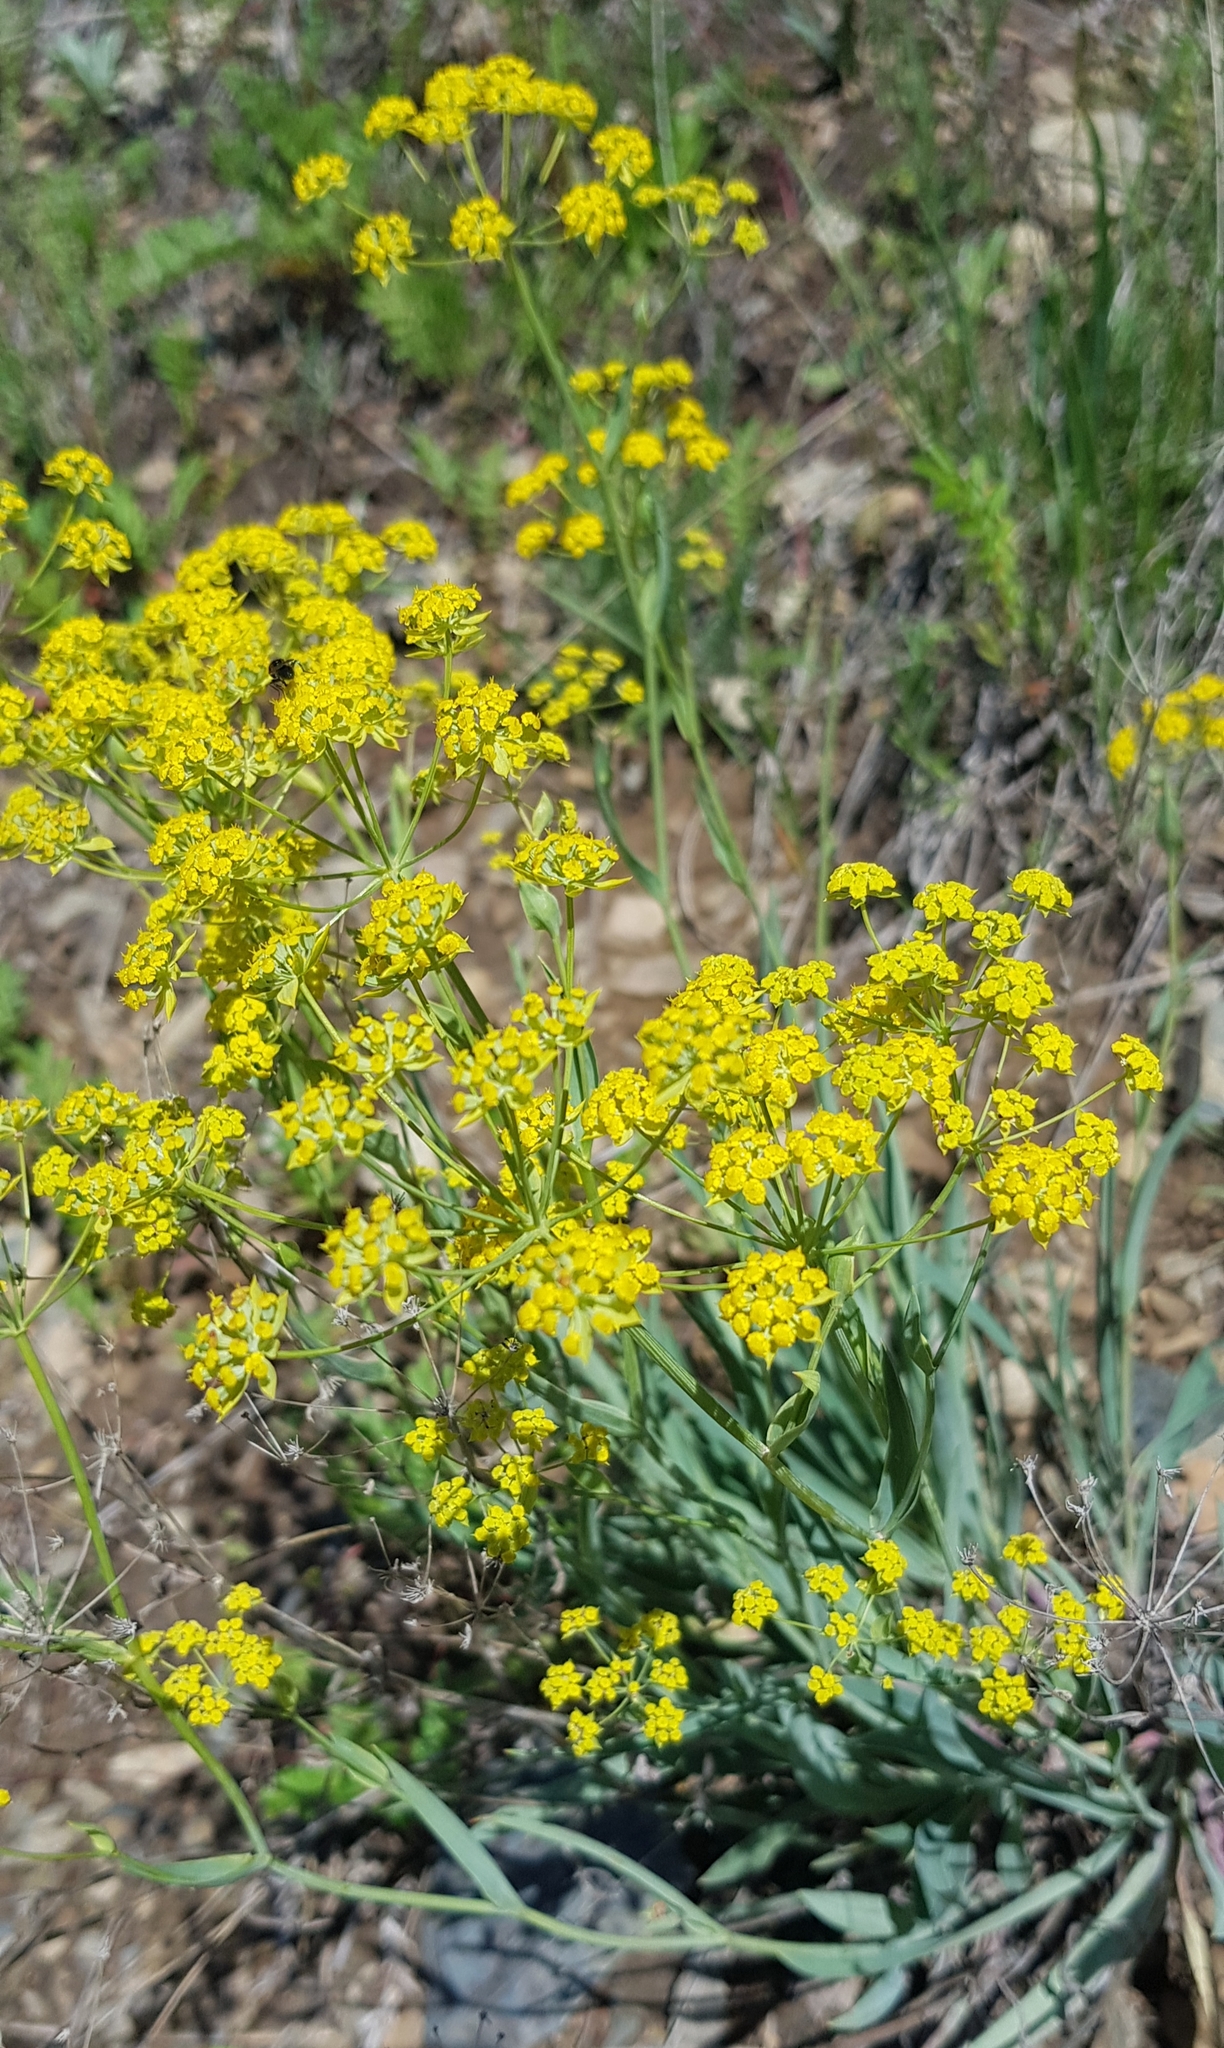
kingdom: Plantae
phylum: Tracheophyta
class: Magnoliopsida
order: Apiales
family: Apiaceae
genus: Bupleurum
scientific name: Bupleurum sibiricum
